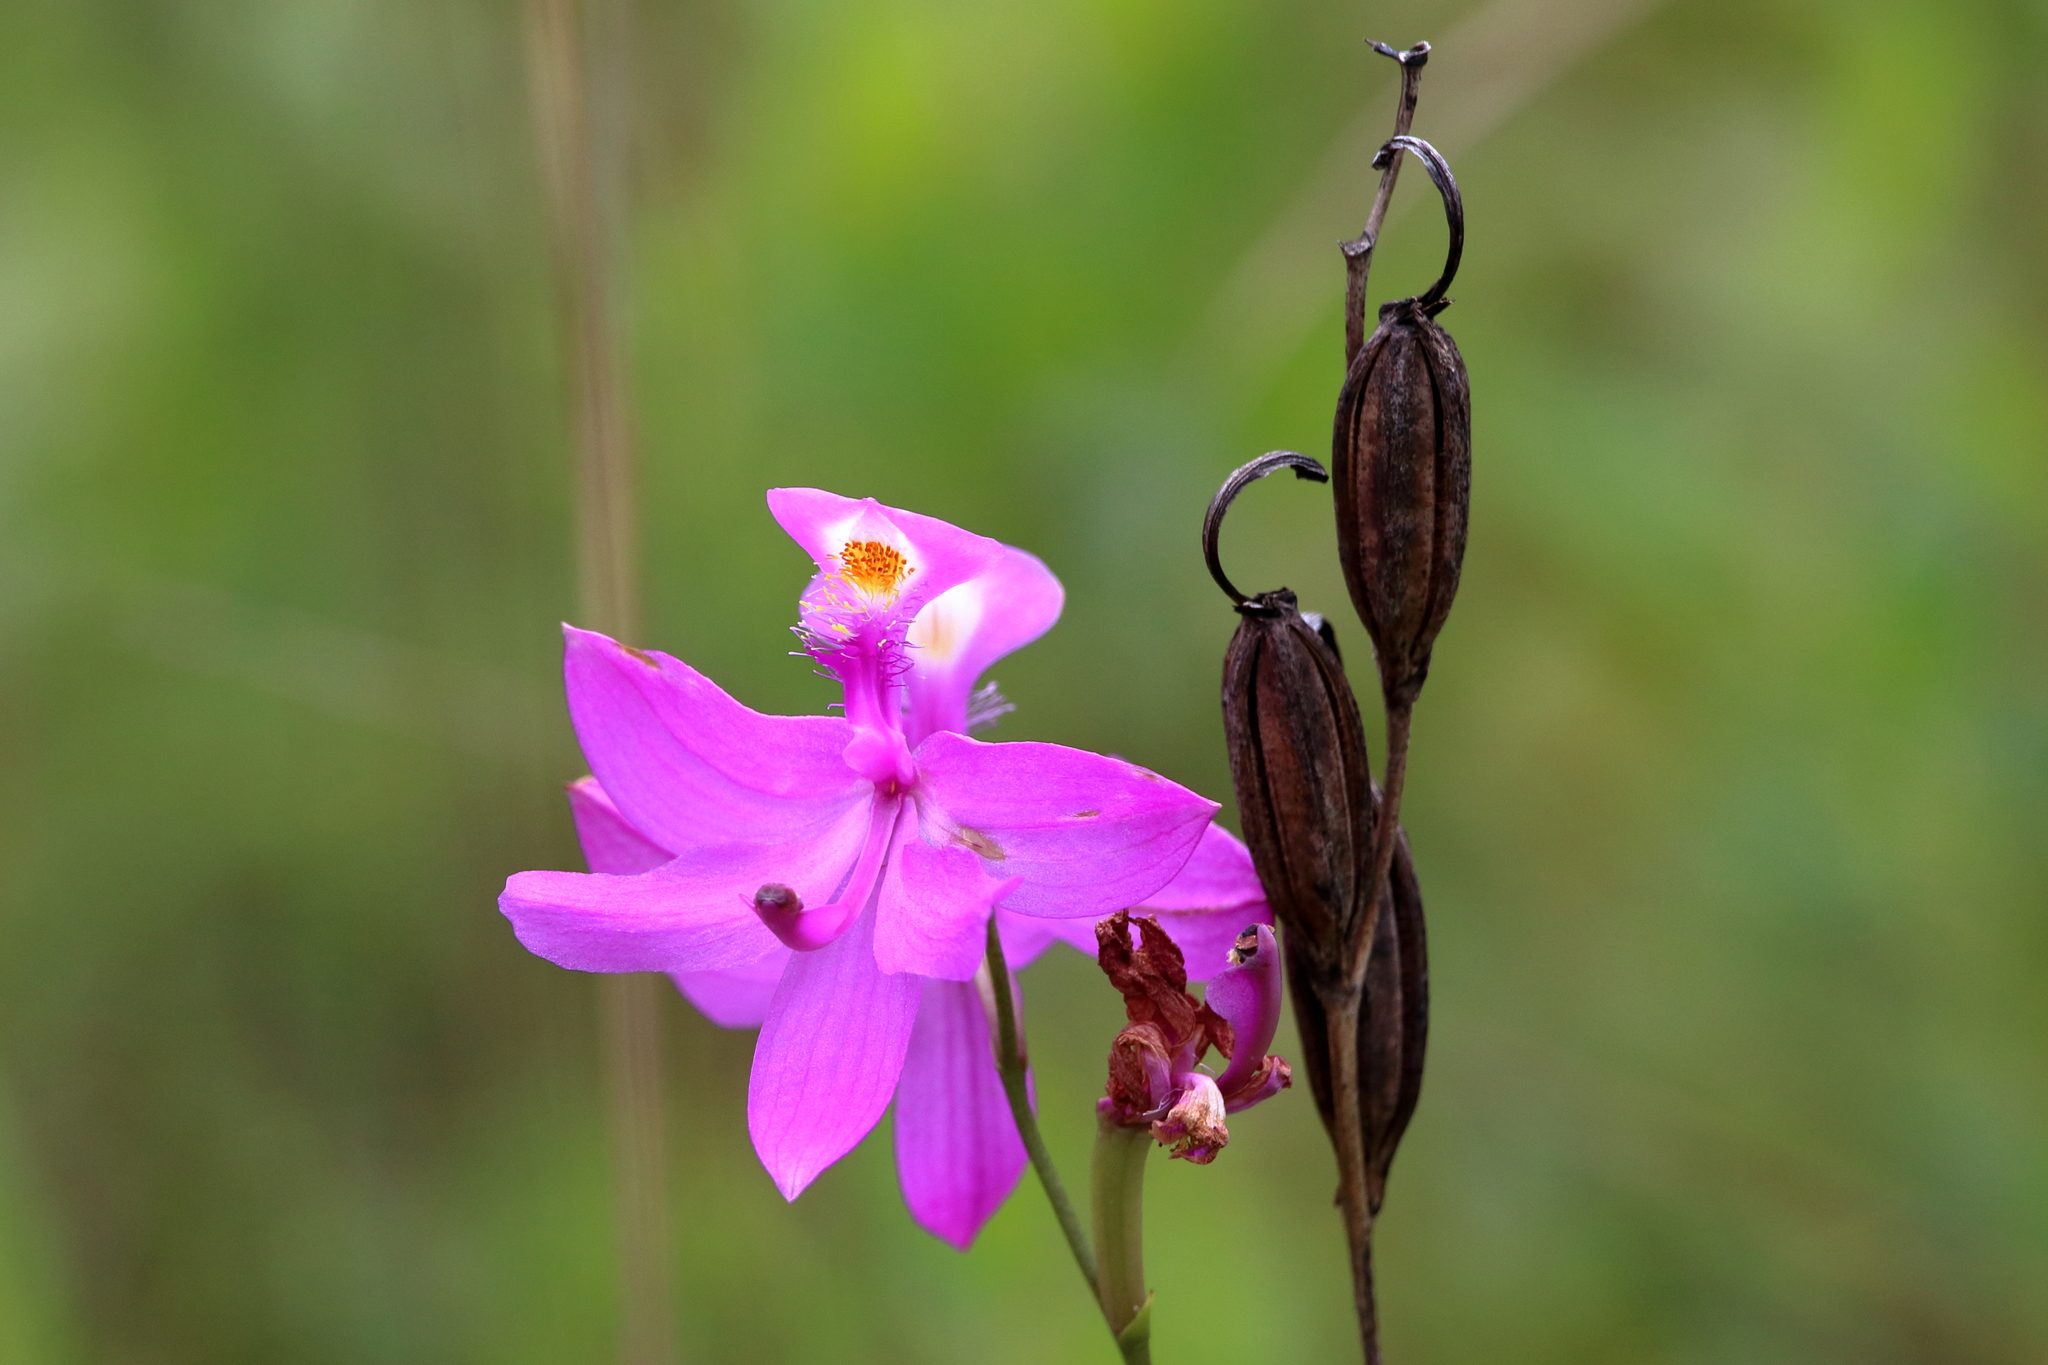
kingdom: Plantae
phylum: Tracheophyta
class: Liliopsida
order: Asparagales
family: Orchidaceae
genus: Calopogon
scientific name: Calopogon tuberosus
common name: Grass-pink
